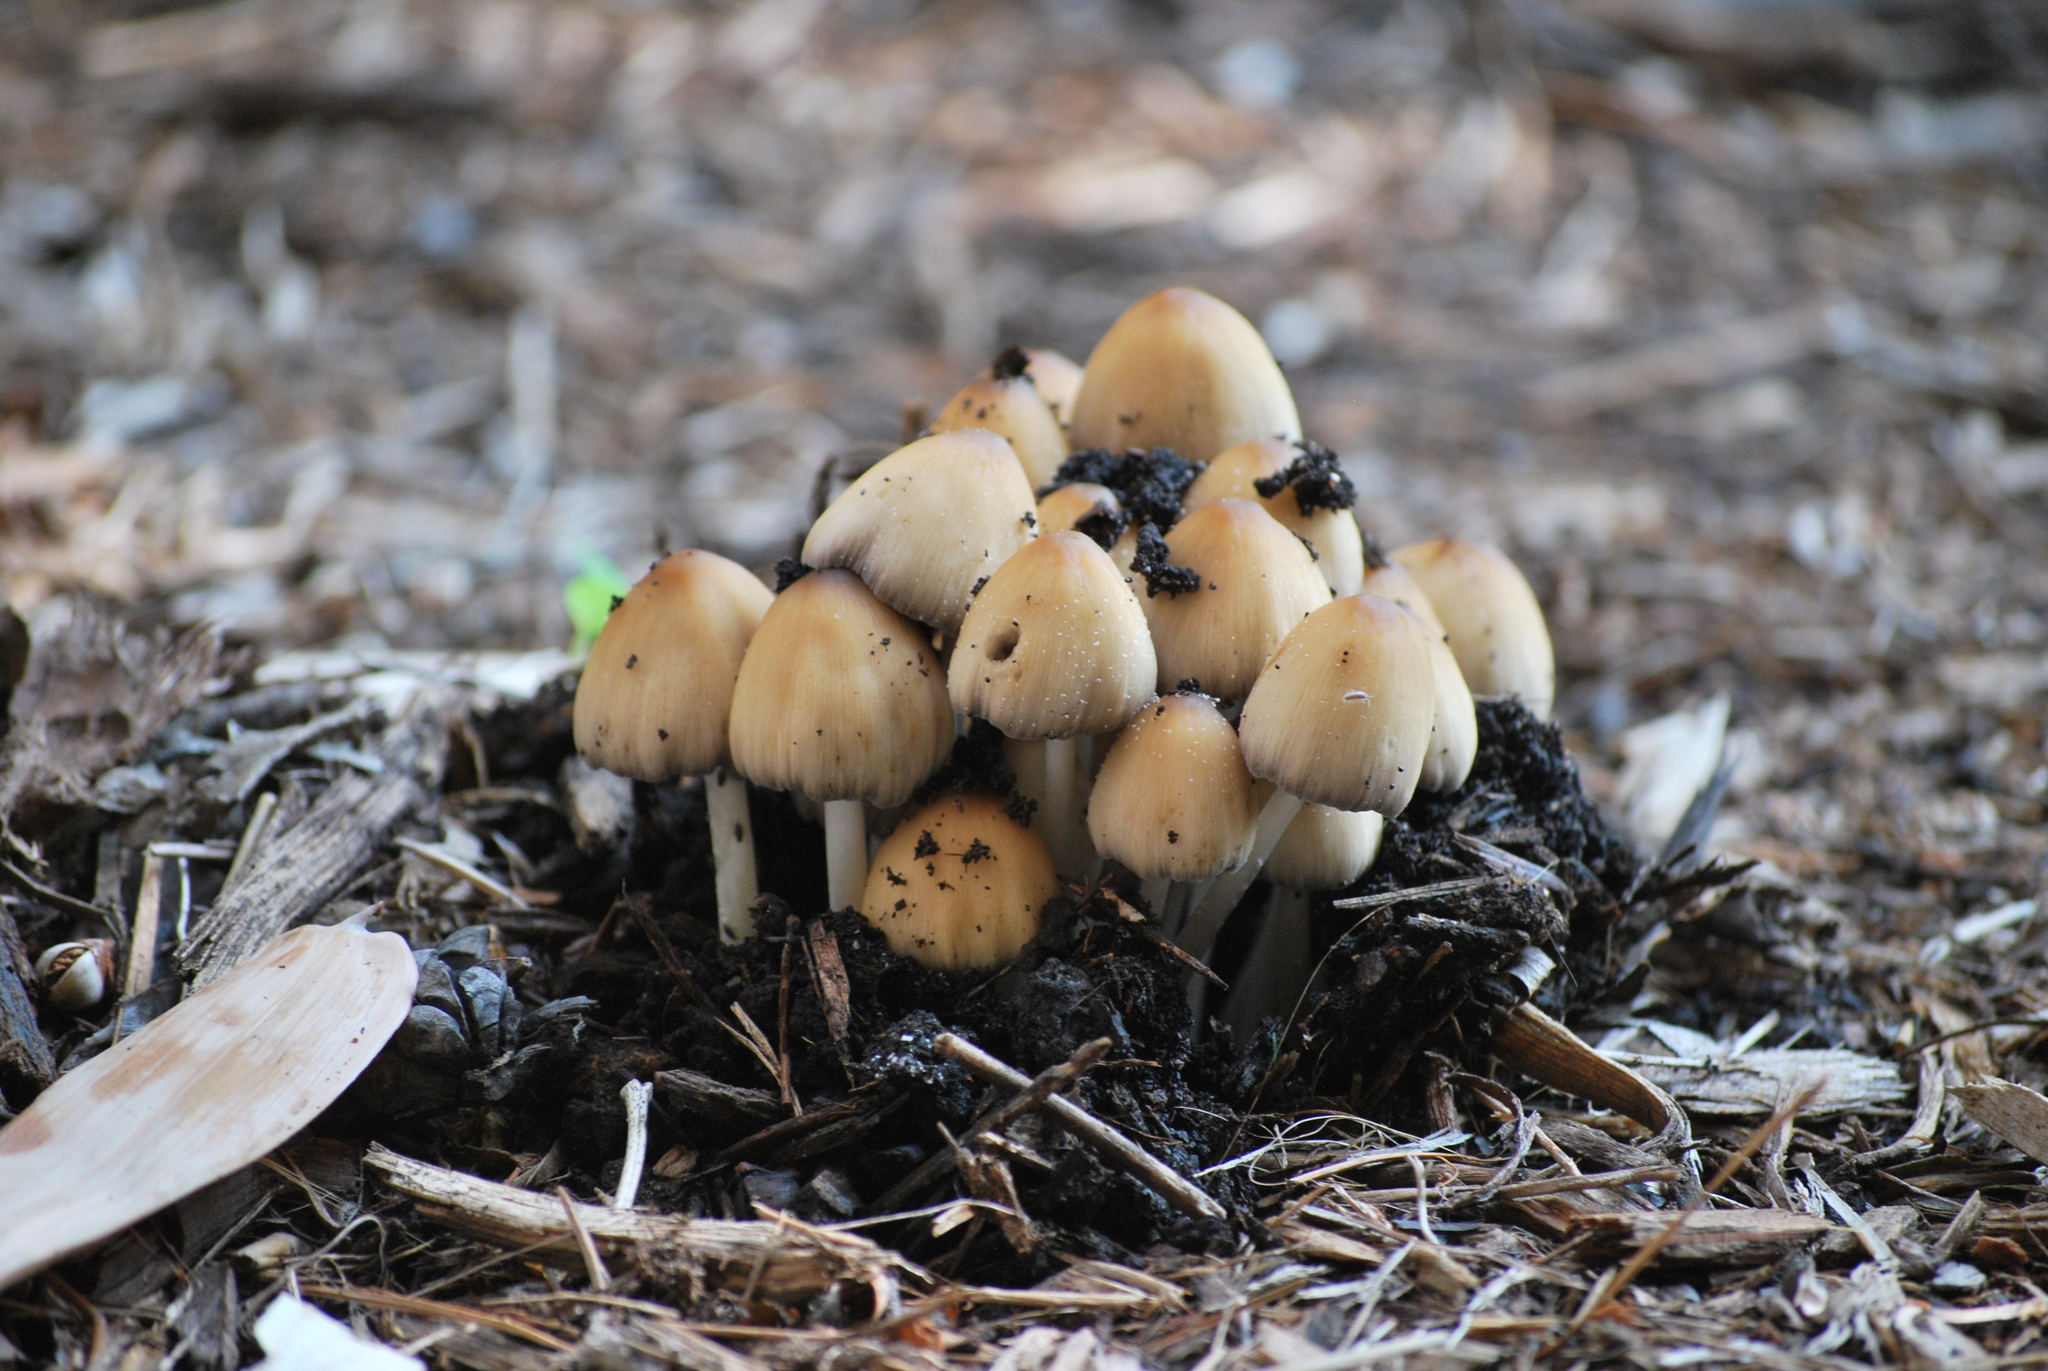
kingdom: Fungi
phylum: Basidiomycota
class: Agaricomycetes
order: Agaricales
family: Psathyrellaceae
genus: Coprinellus
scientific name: Coprinellus micaceus
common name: Glistening ink-cap
